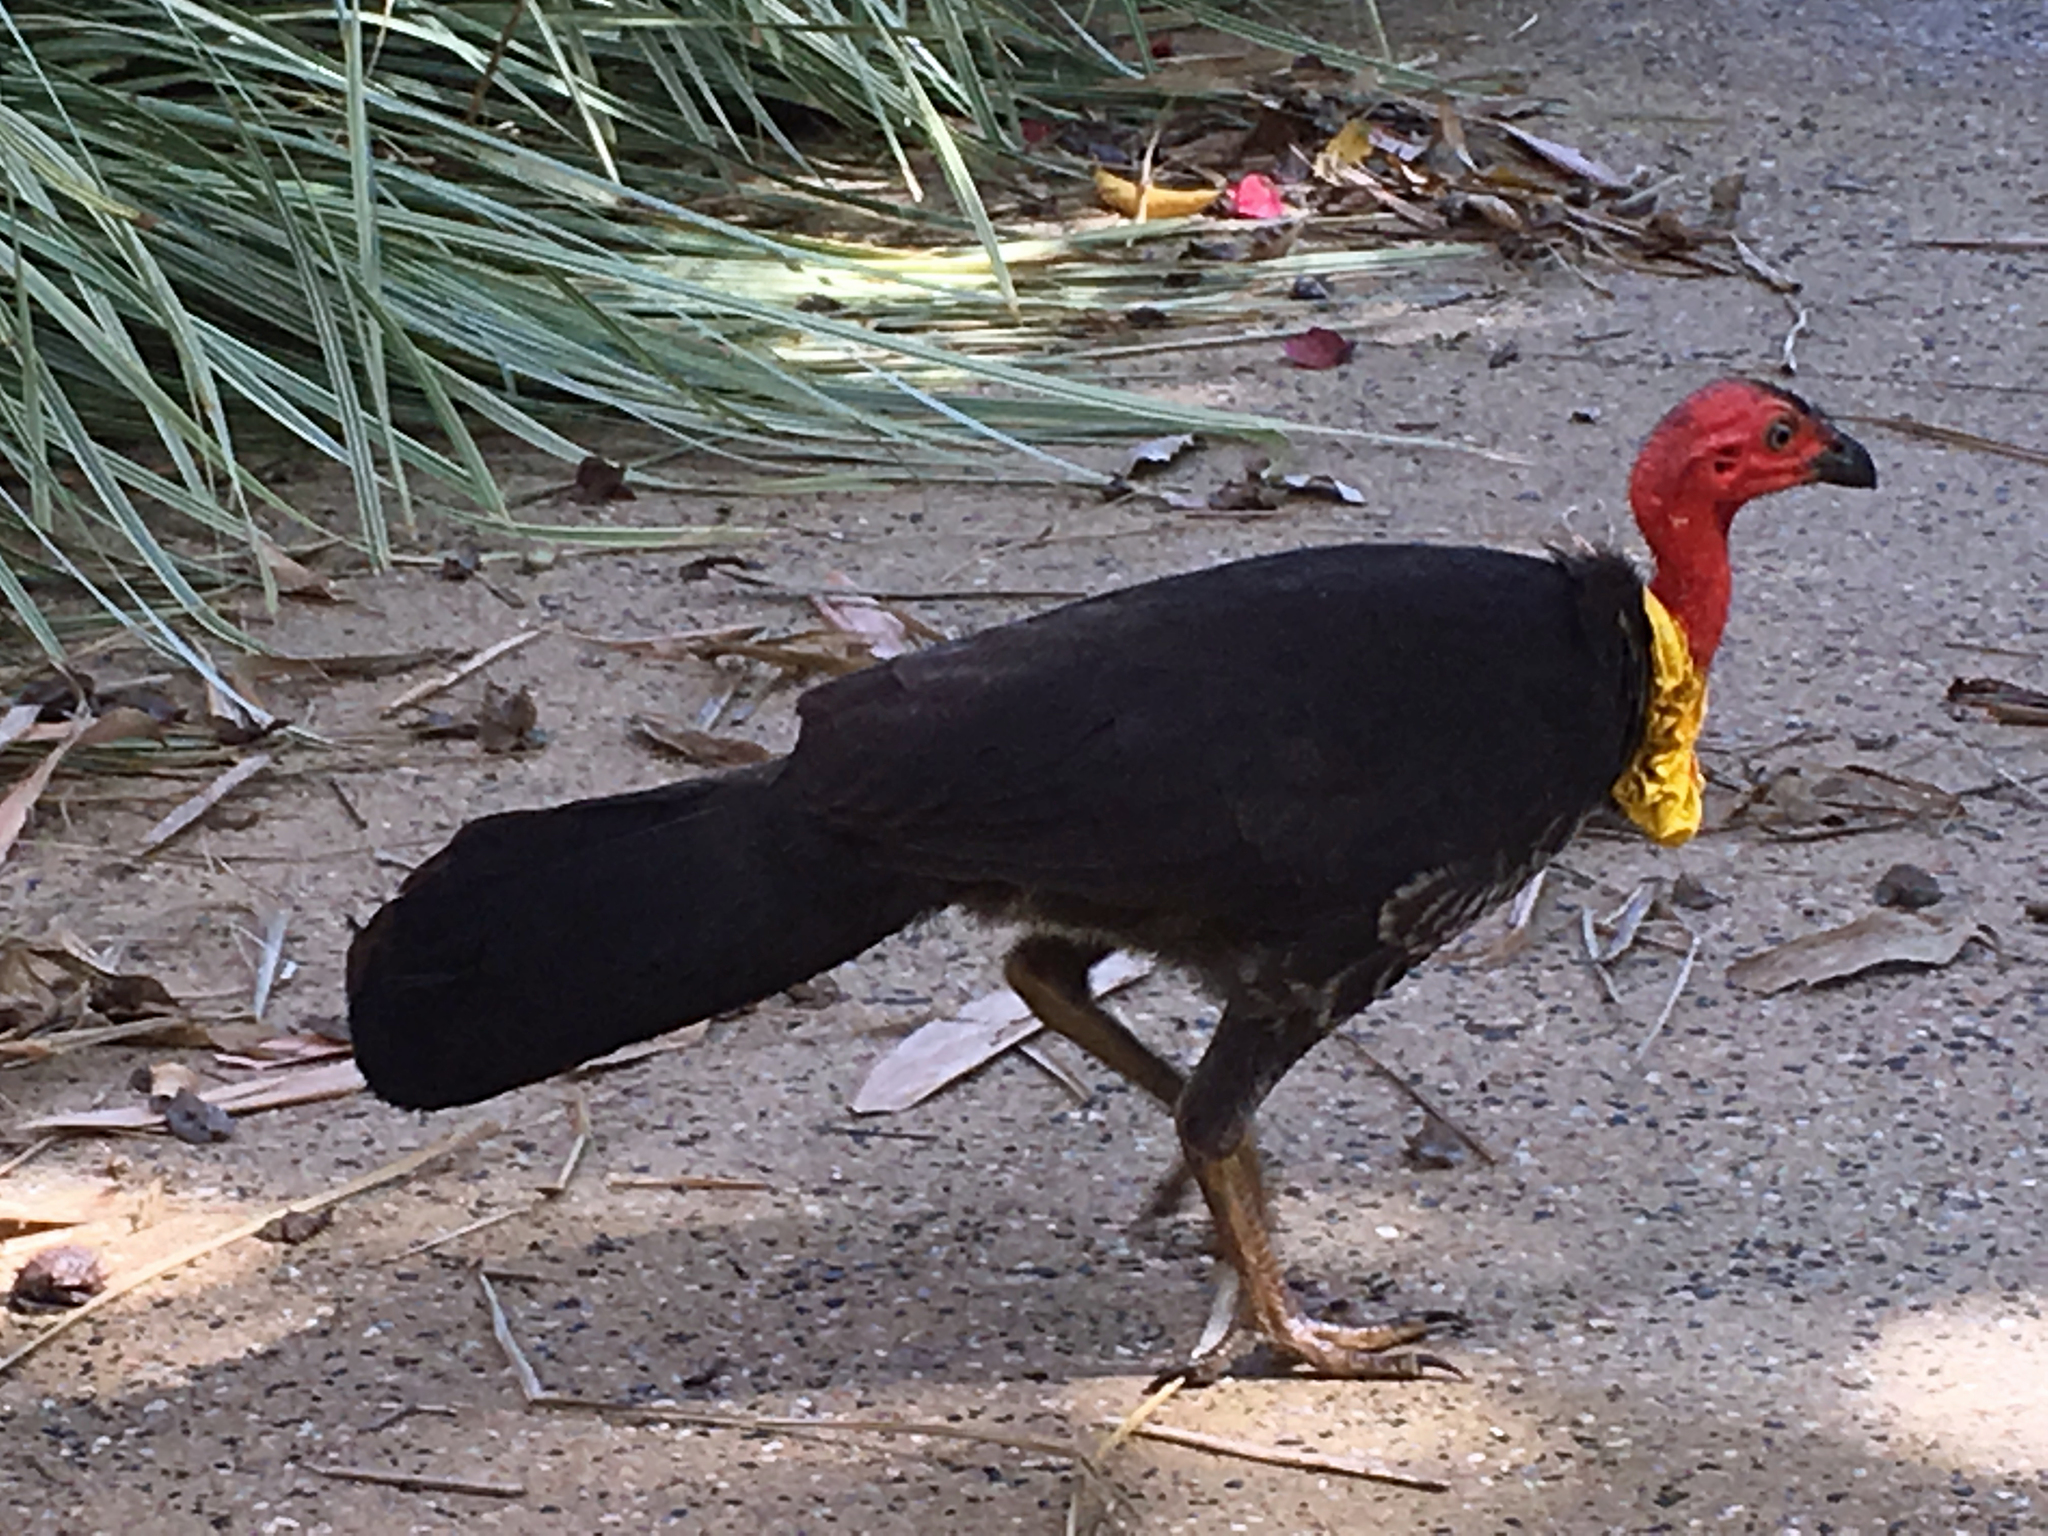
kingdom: Animalia
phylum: Chordata
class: Aves
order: Galliformes
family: Megapodiidae
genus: Alectura
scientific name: Alectura lathami
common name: Australian brushturkey
